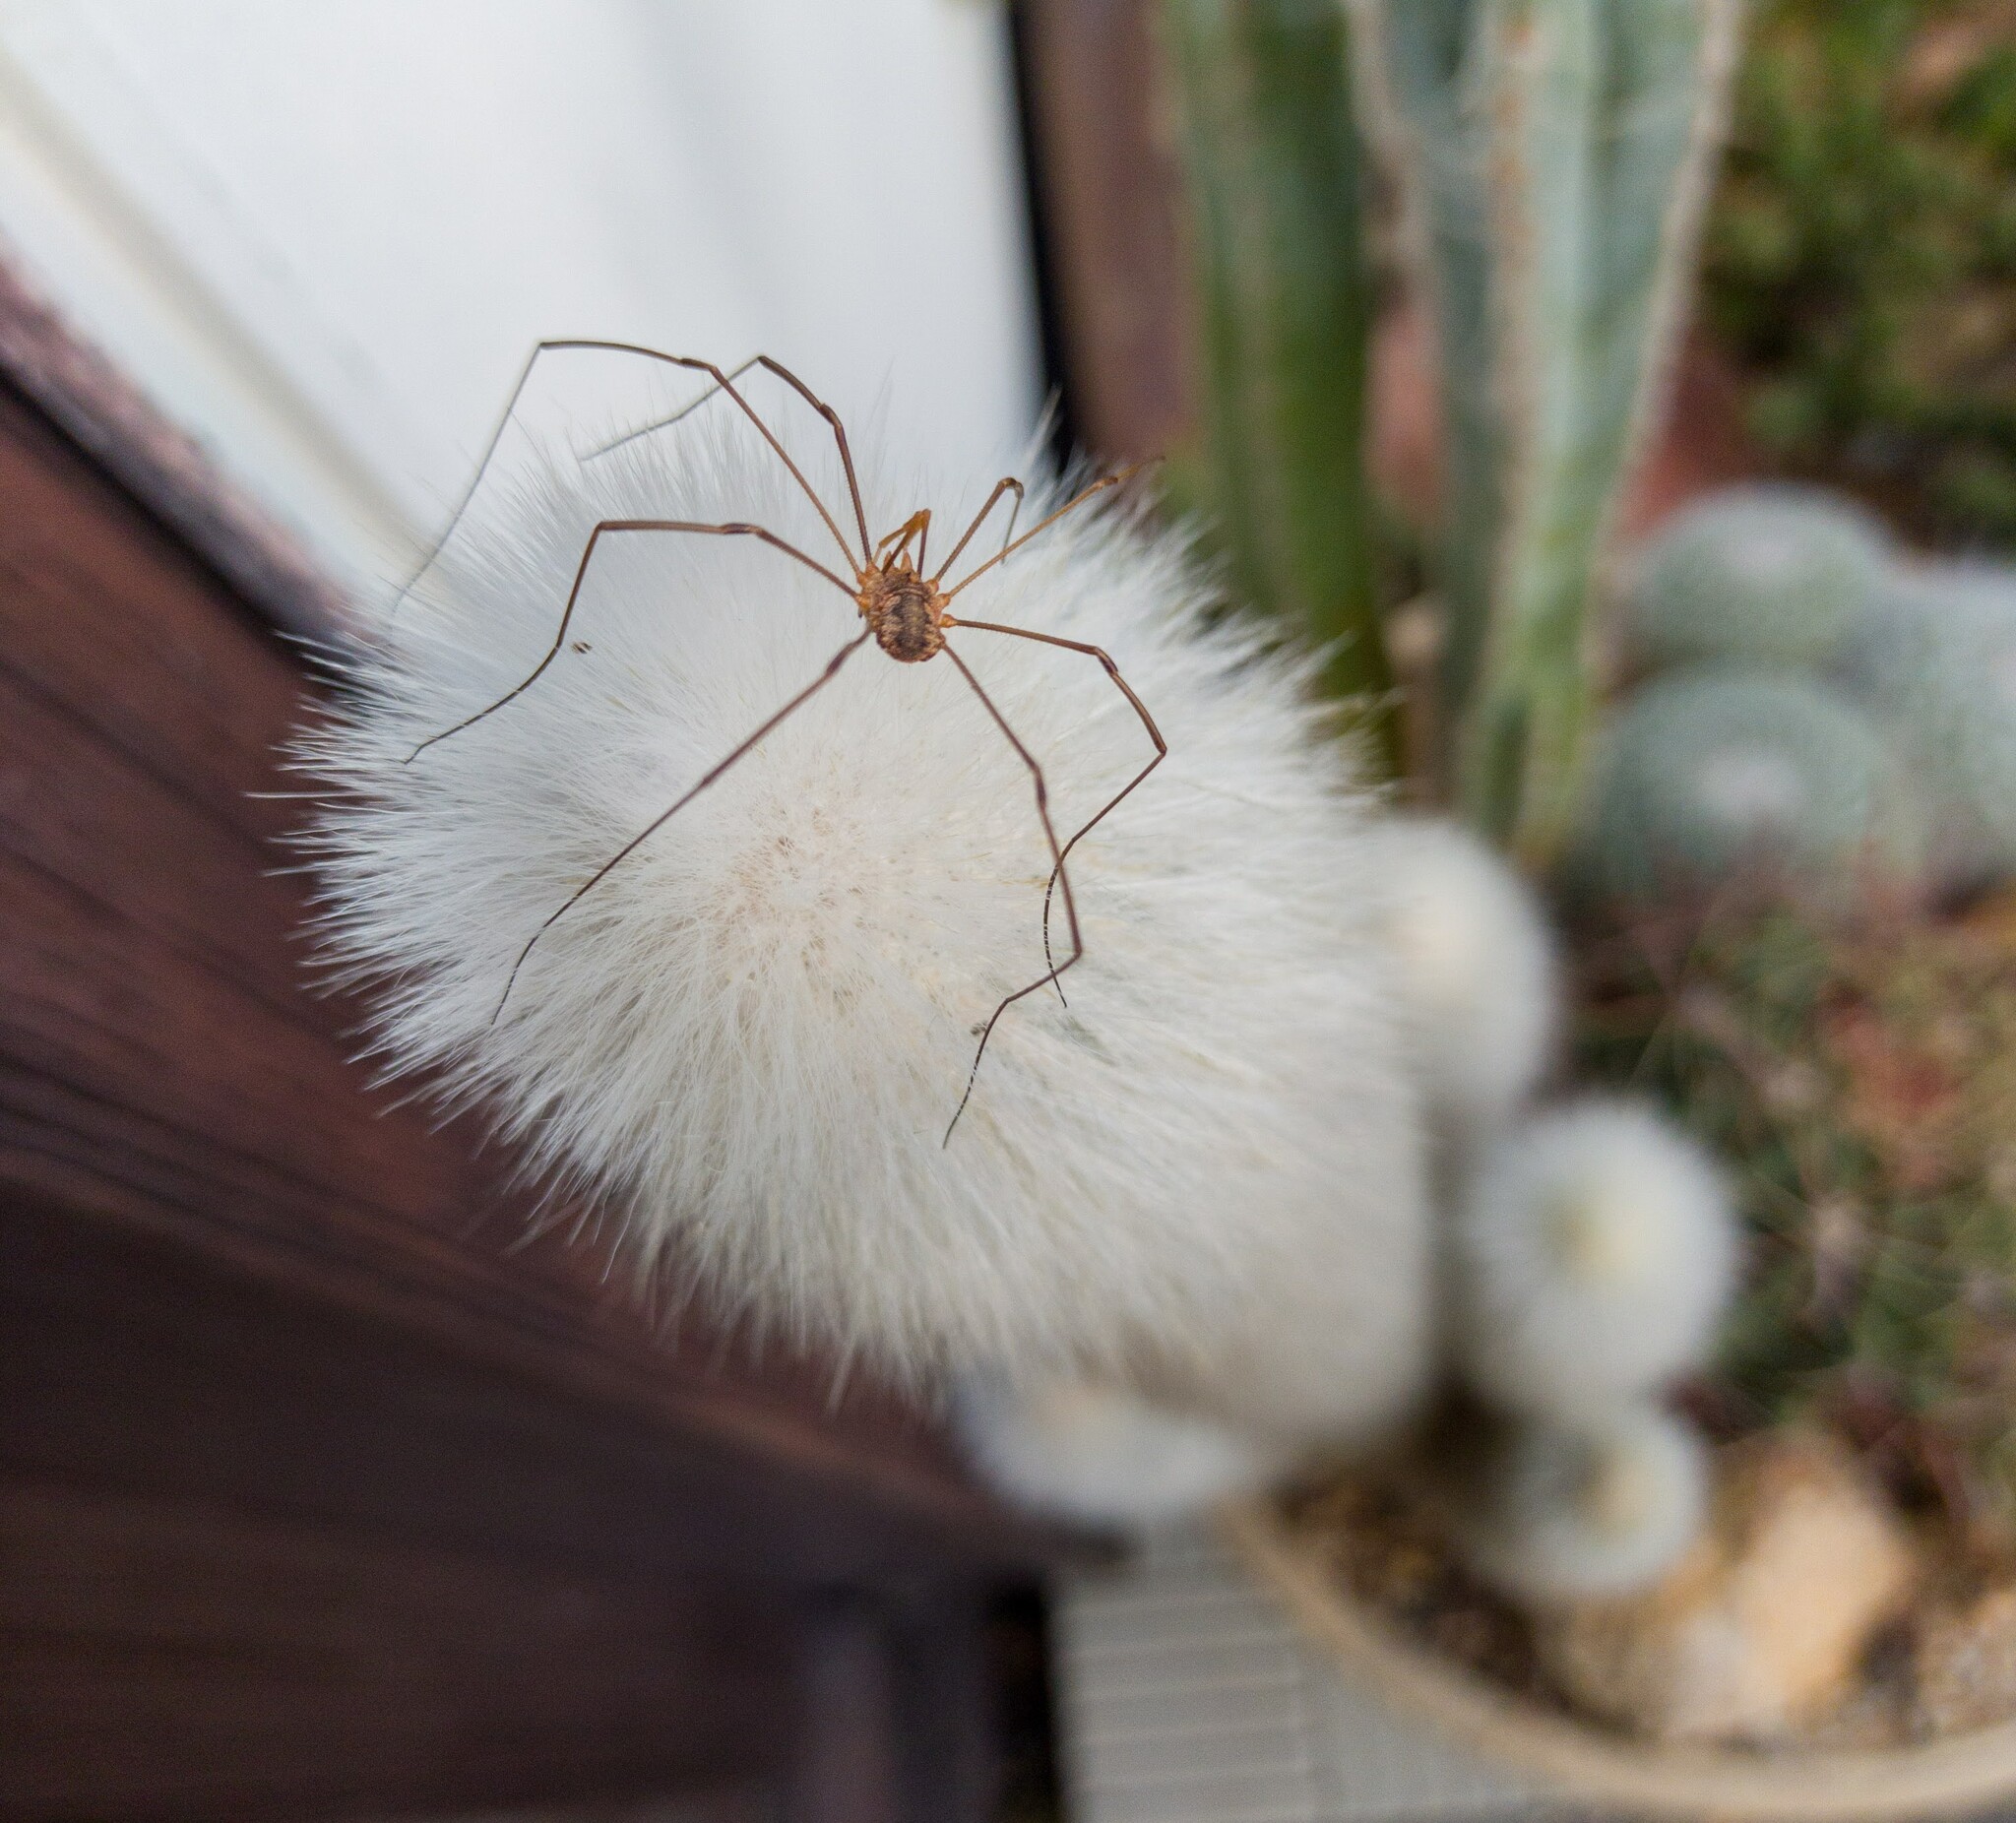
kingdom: Animalia
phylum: Arthropoda
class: Arachnida
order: Opiliones
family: Phalangiidae
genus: Phalangium
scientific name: Phalangium opilio
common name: Daddy longleg
